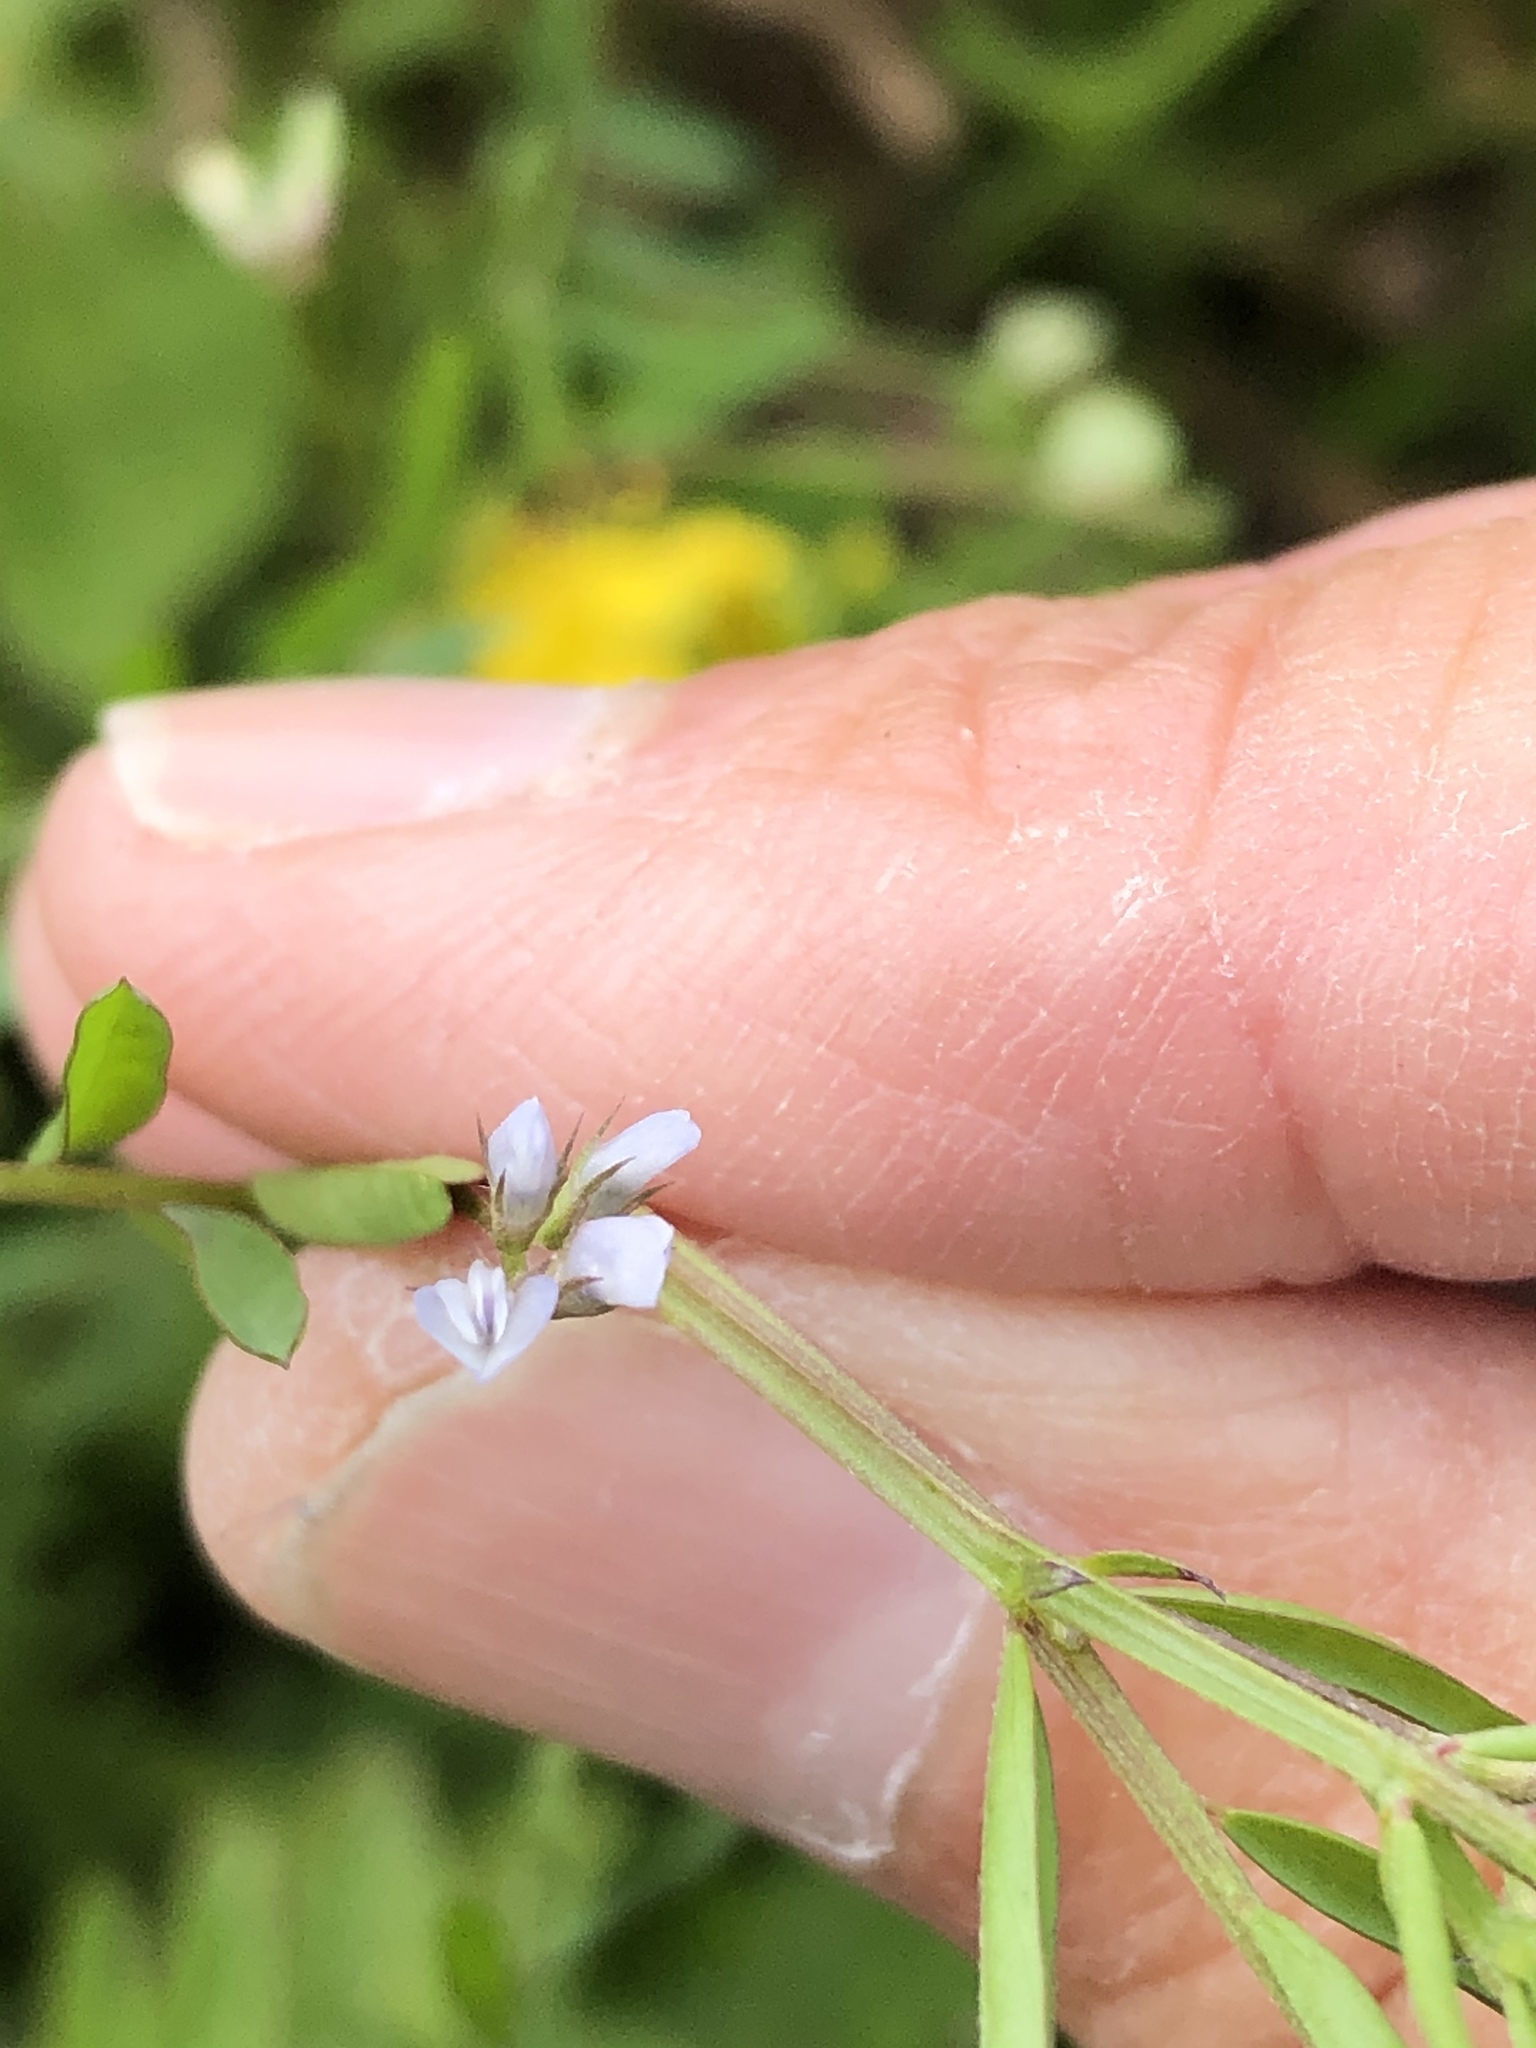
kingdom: Plantae
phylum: Tracheophyta
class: Magnoliopsida
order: Fabales
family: Fabaceae
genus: Vicia
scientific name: Vicia hirsuta
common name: Tiny vetch
